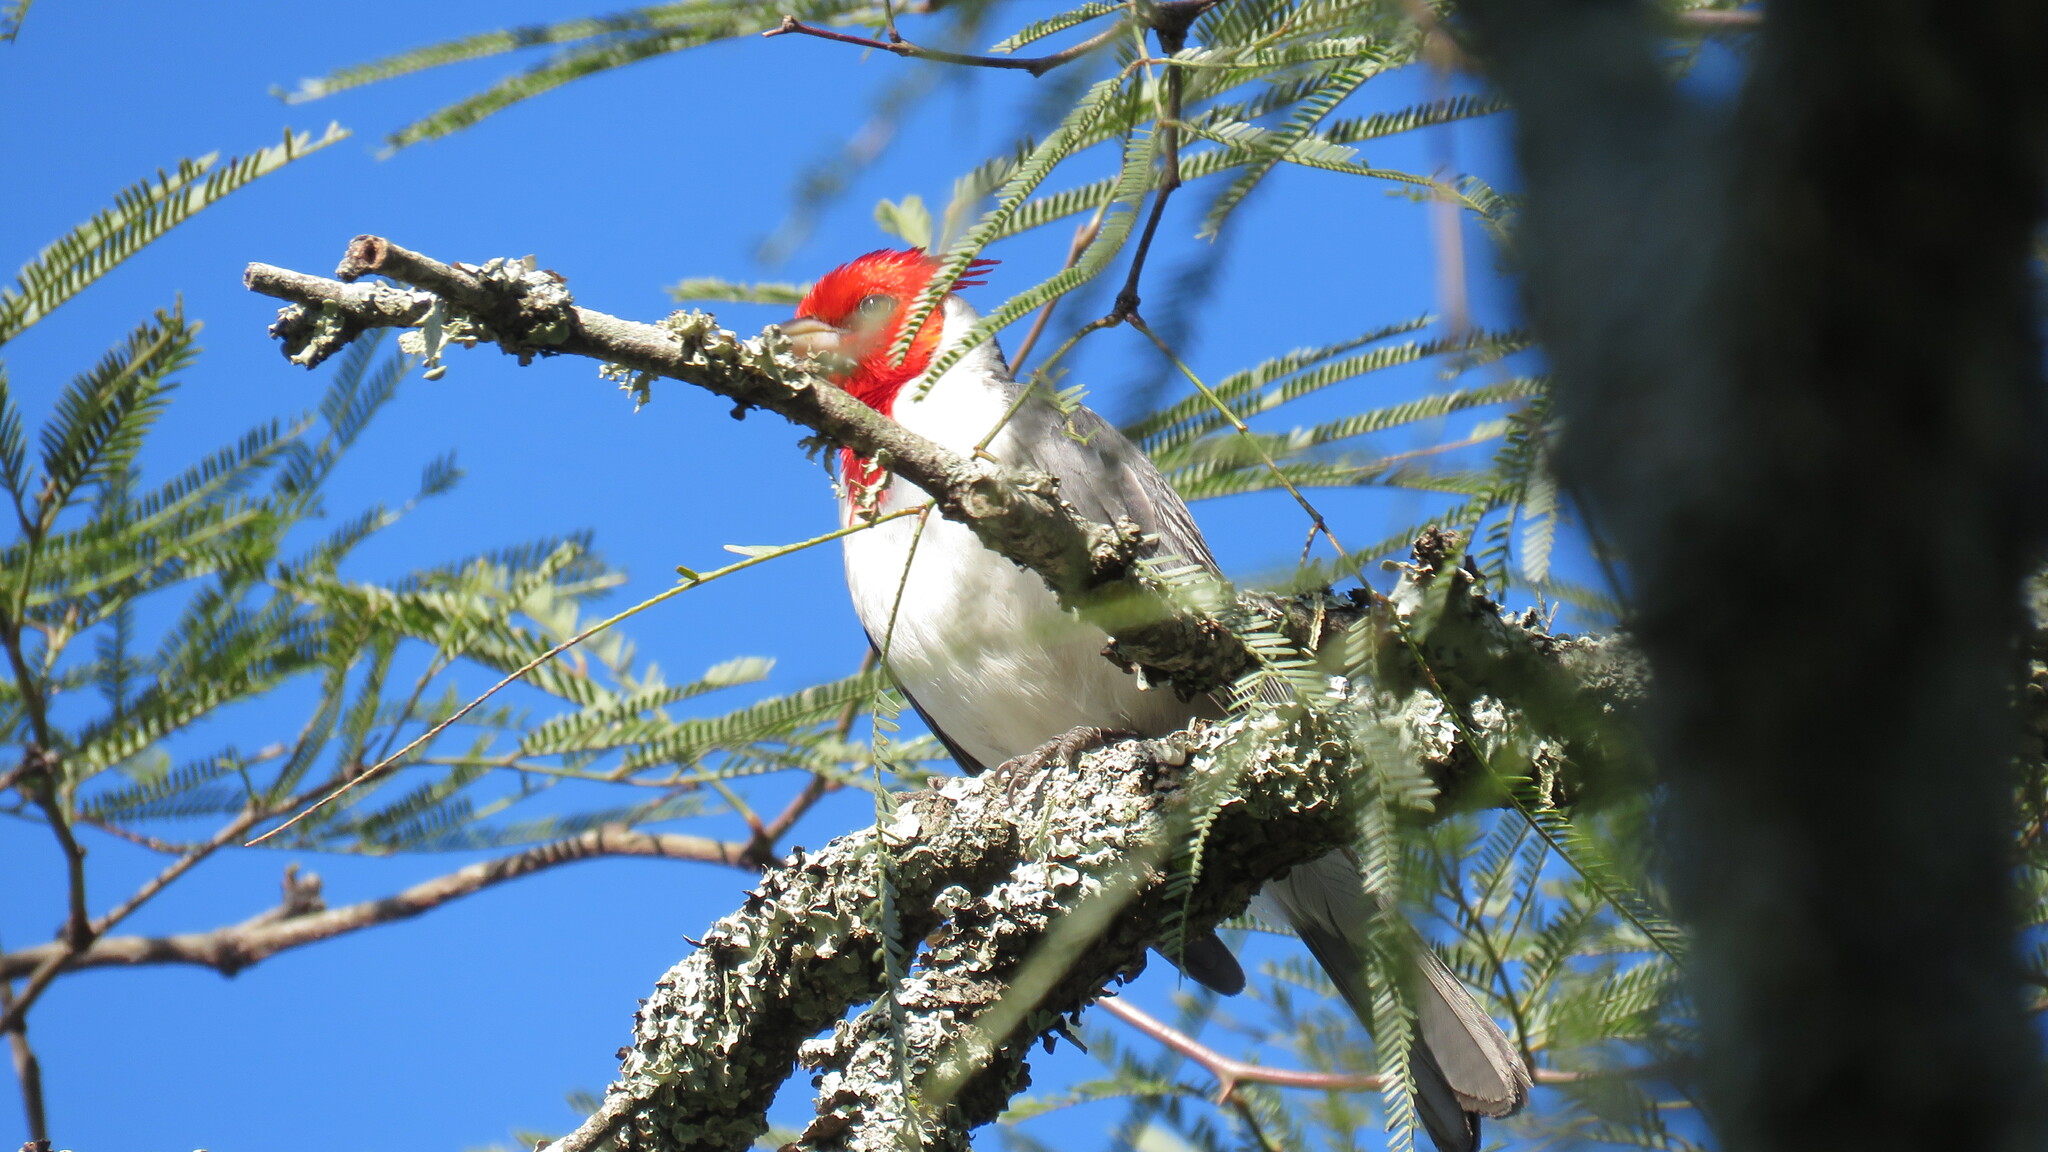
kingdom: Animalia
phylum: Chordata
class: Aves
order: Passeriformes
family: Thraupidae
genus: Paroaria
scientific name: Paroaria coronata
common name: Red-crested cardinal
